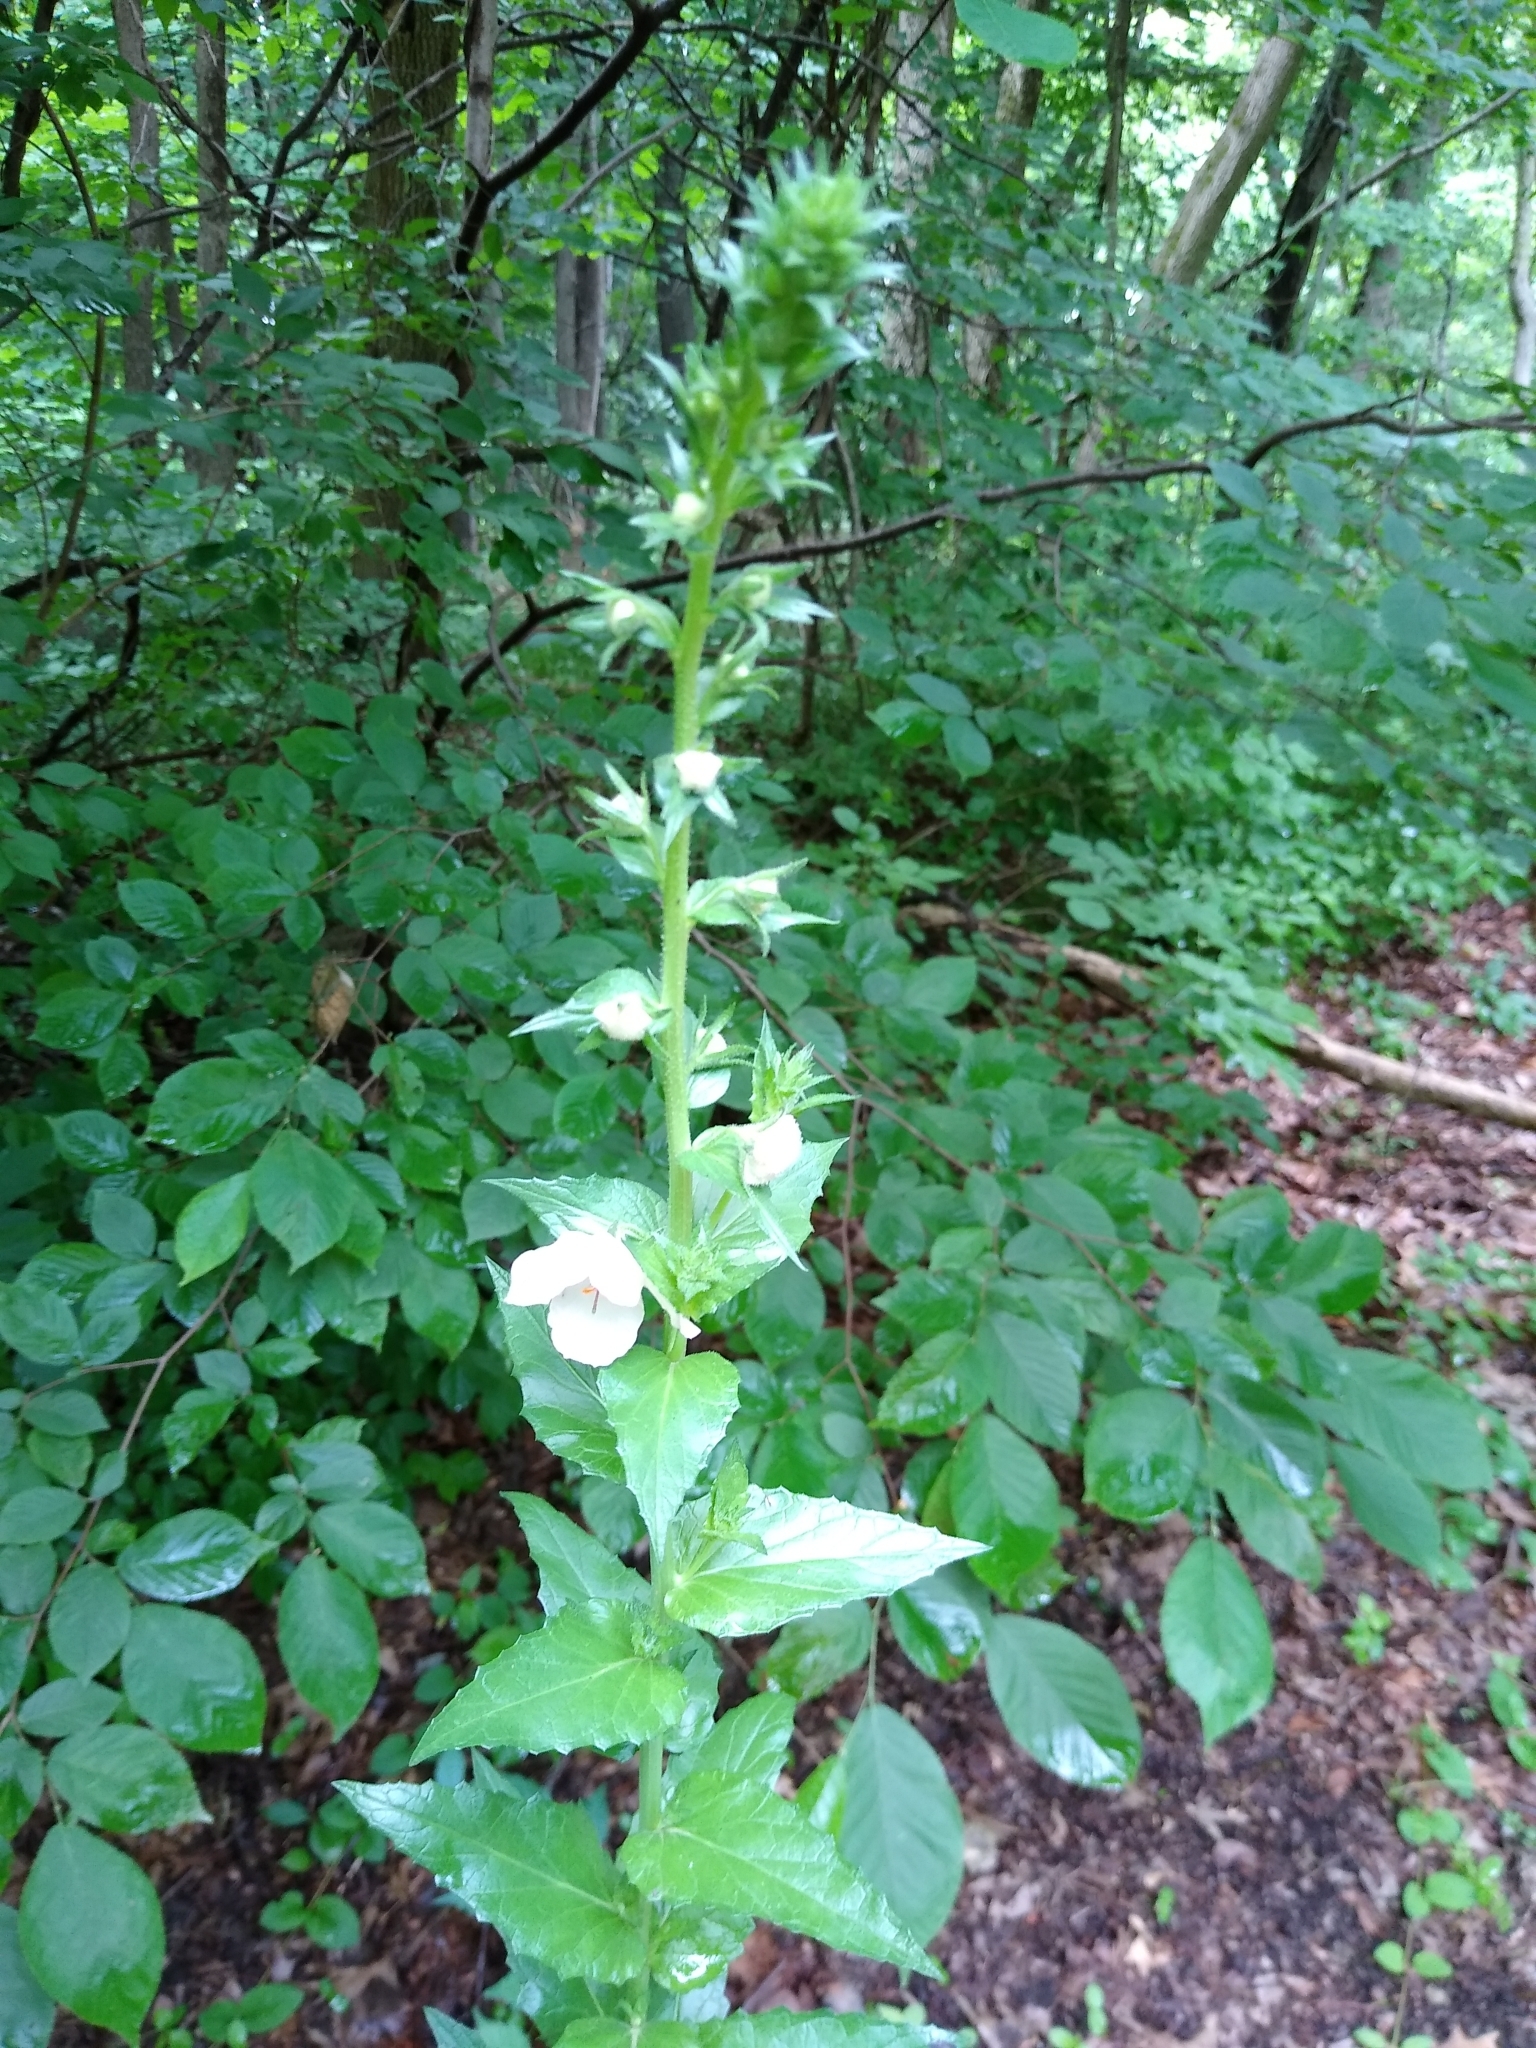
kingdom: Plantae
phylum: Tracheophyta
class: Magnoliopsida
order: Lamiales
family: Lamiaceae
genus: Synandra
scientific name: Synandra hispidula
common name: Synandra
